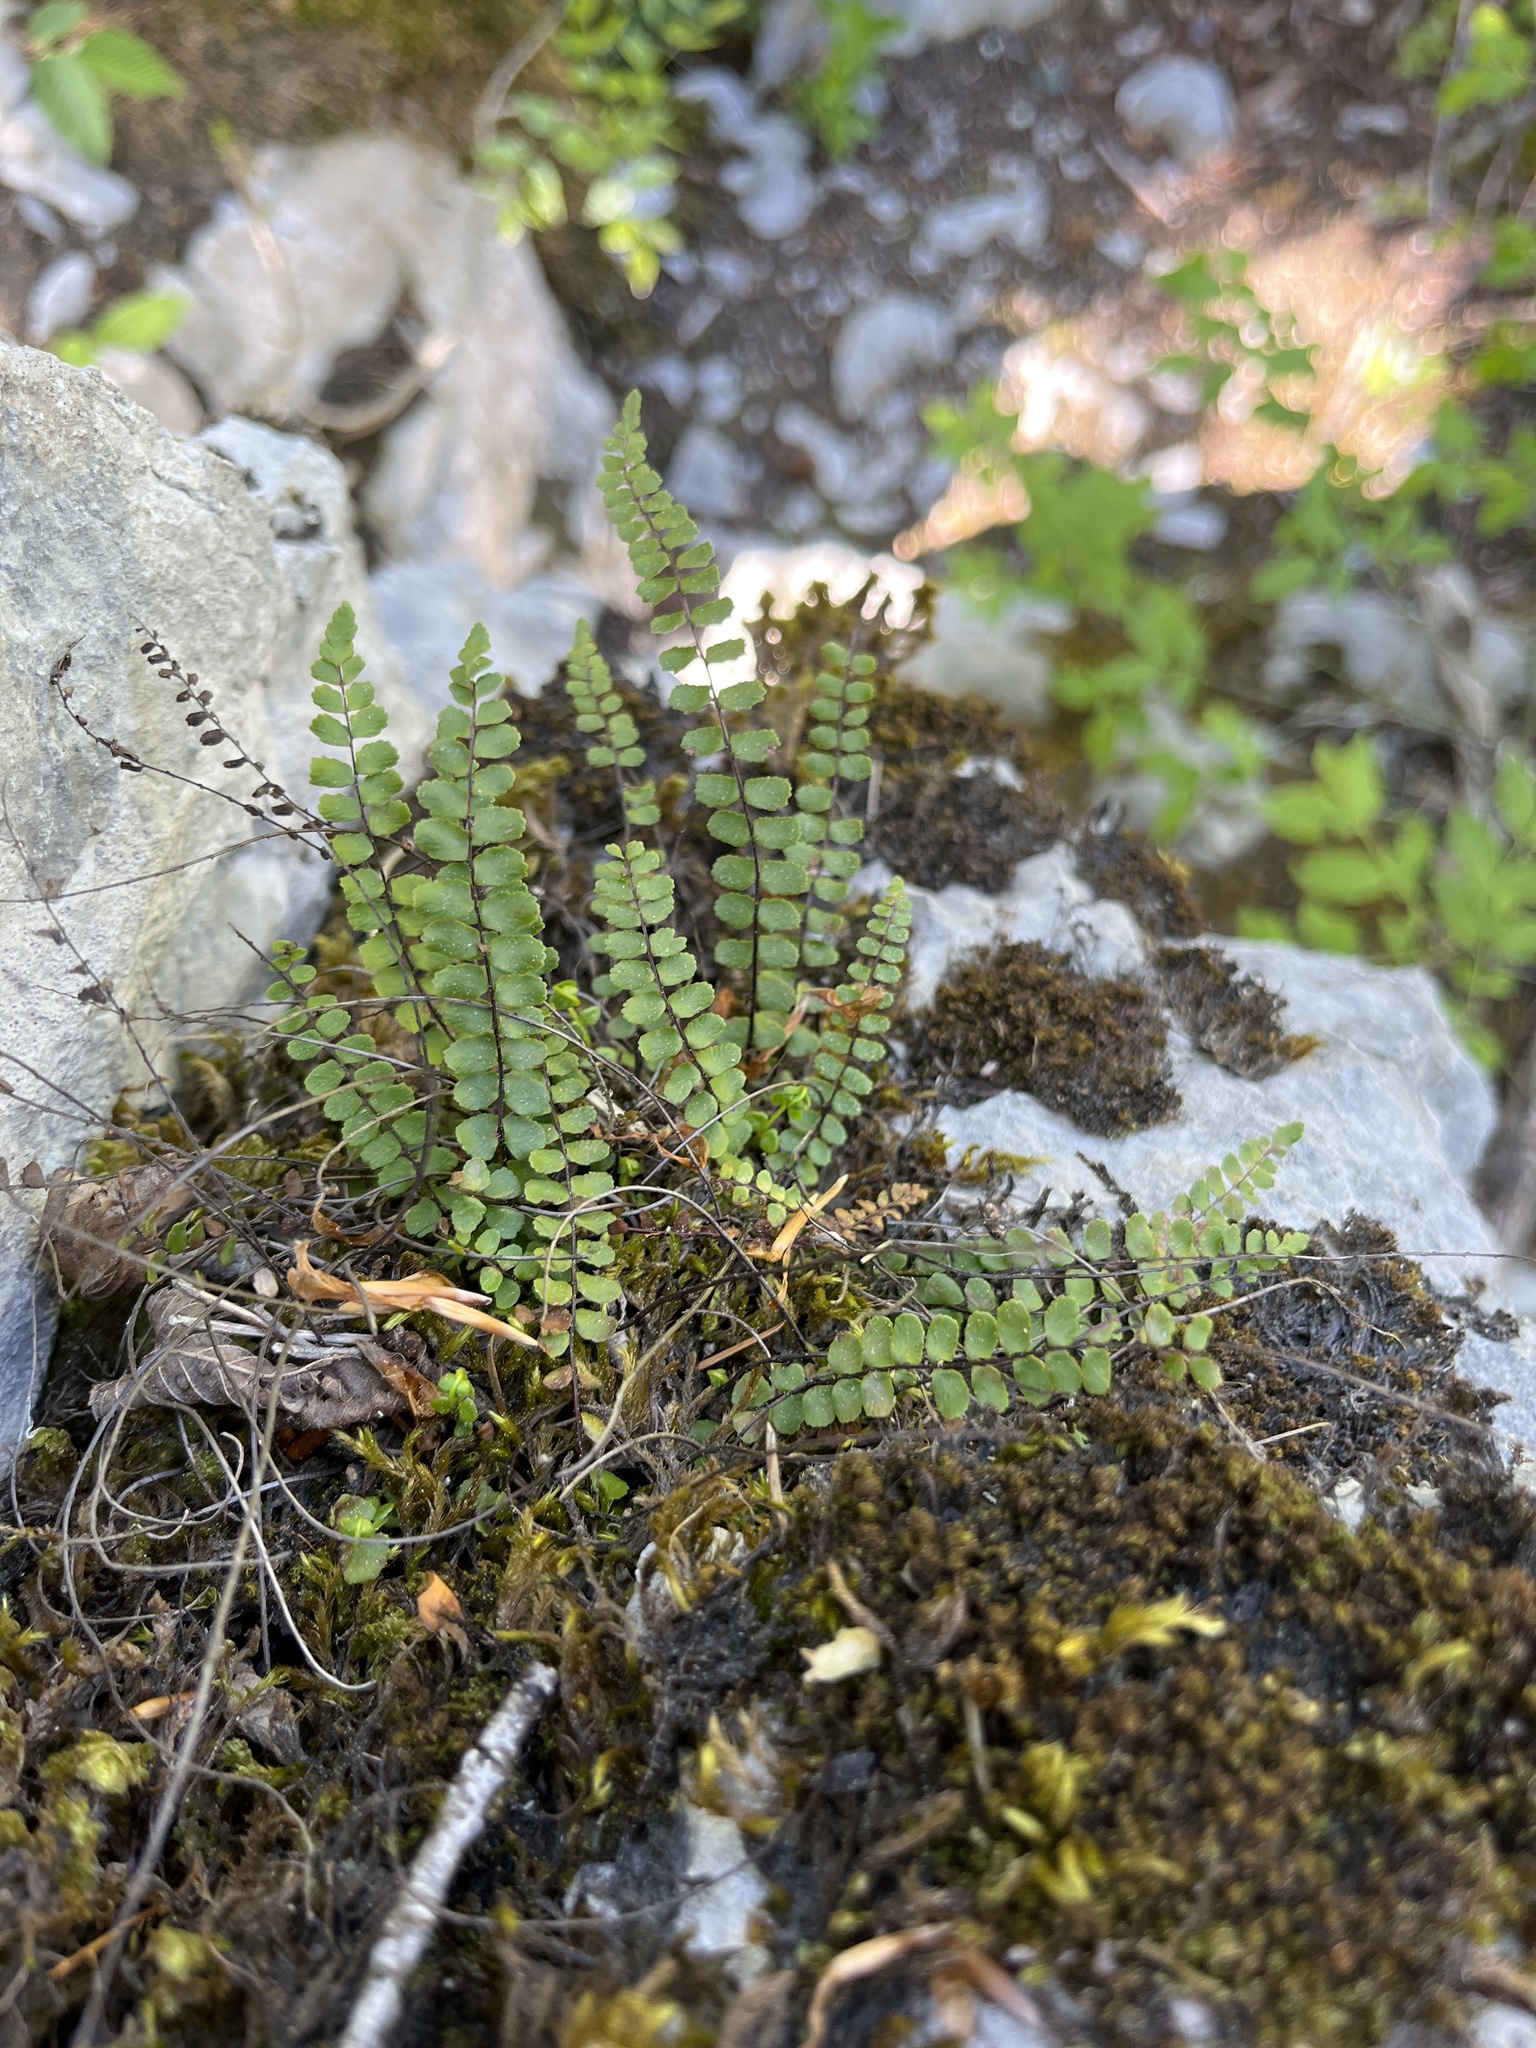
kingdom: Plantae
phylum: Tracheophyta
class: Polypodiopsida
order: Polypodiales
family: Aspleniaceae
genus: Asplenium
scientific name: Asplenium trichomanes
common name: Maidenhair spleenwort
